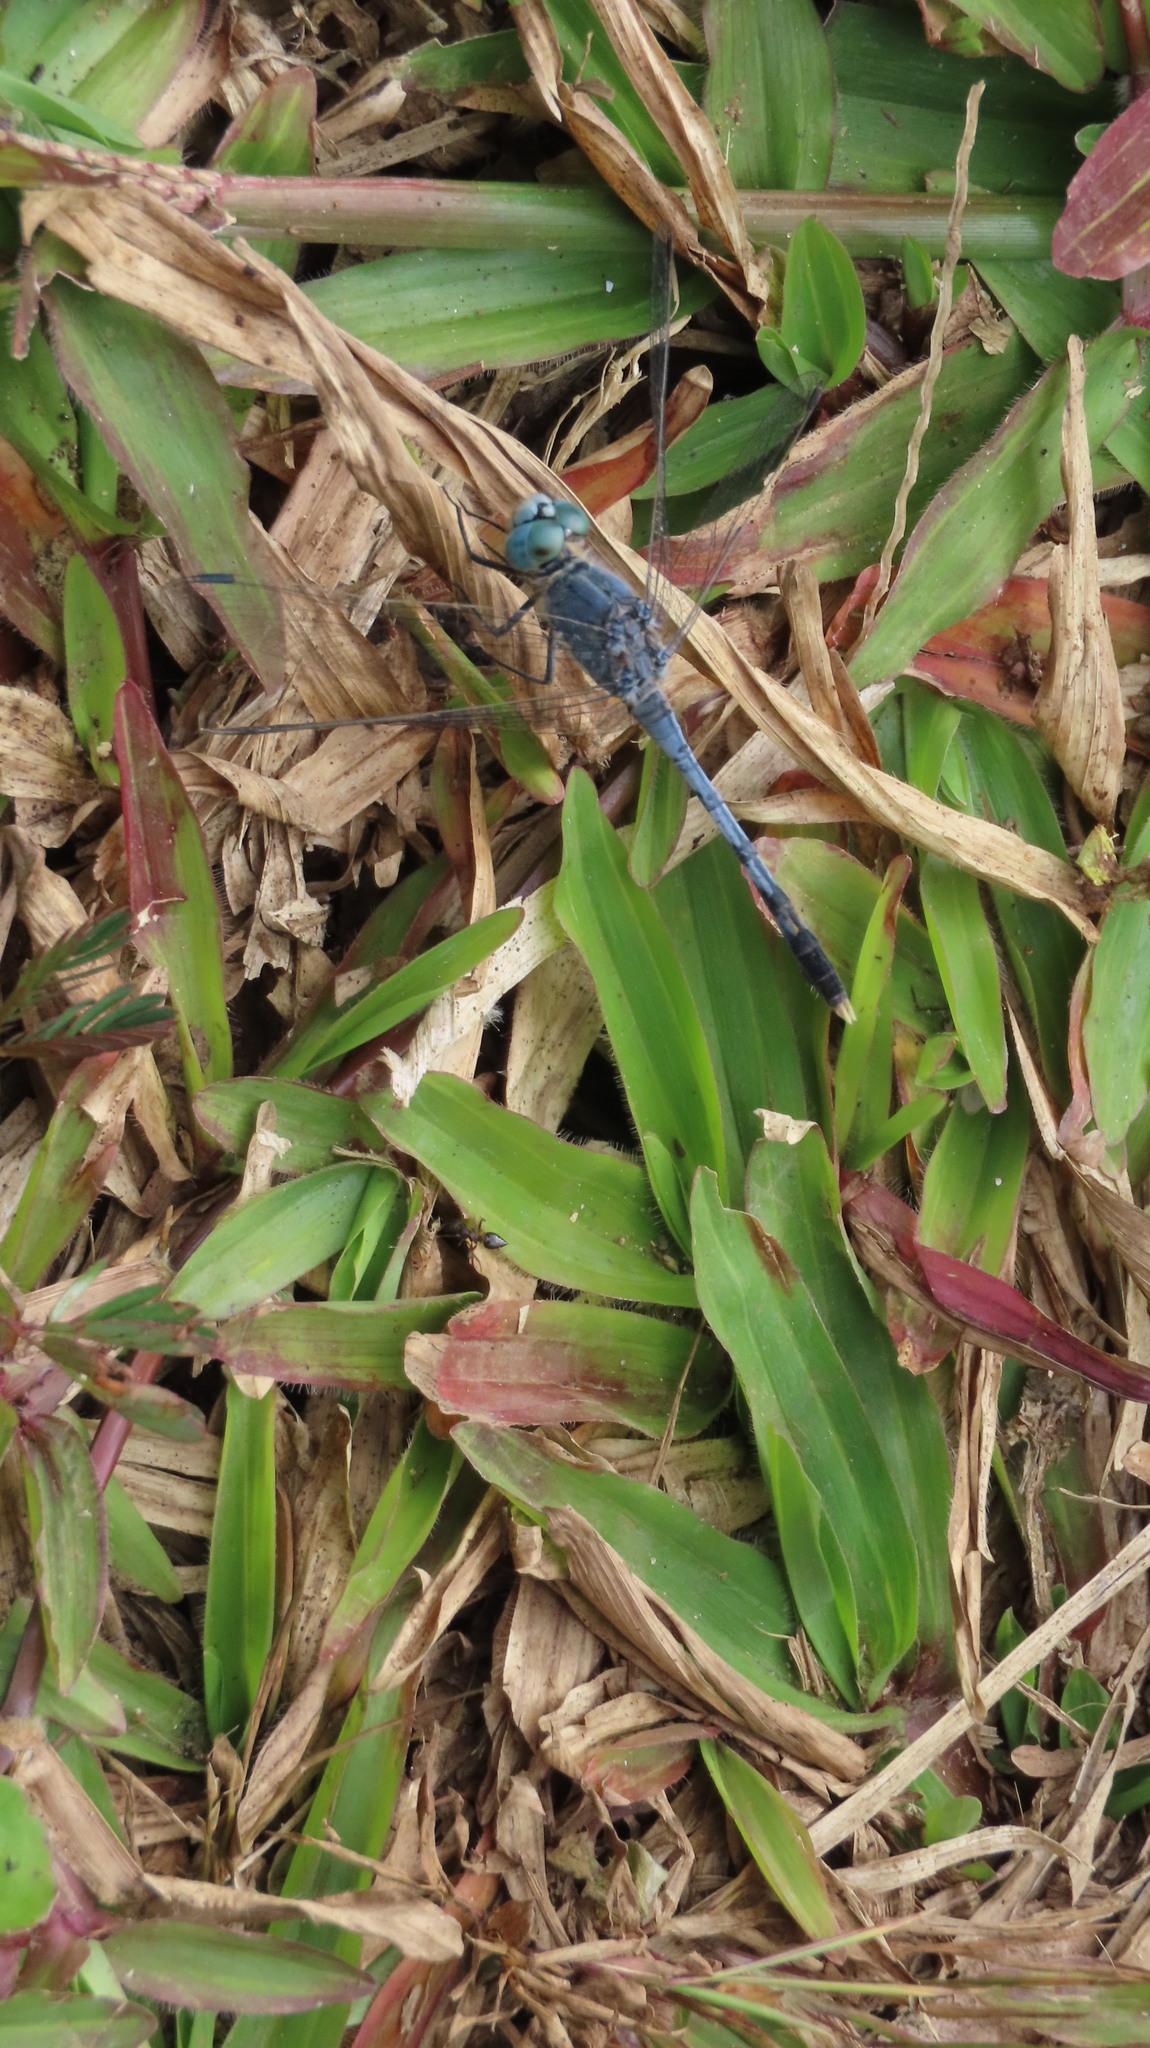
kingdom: Animalia
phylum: Arthropoda
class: Insecta
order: Odonata
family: Libellulidae
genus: Diplacodes
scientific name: Diplacodes trivialis
